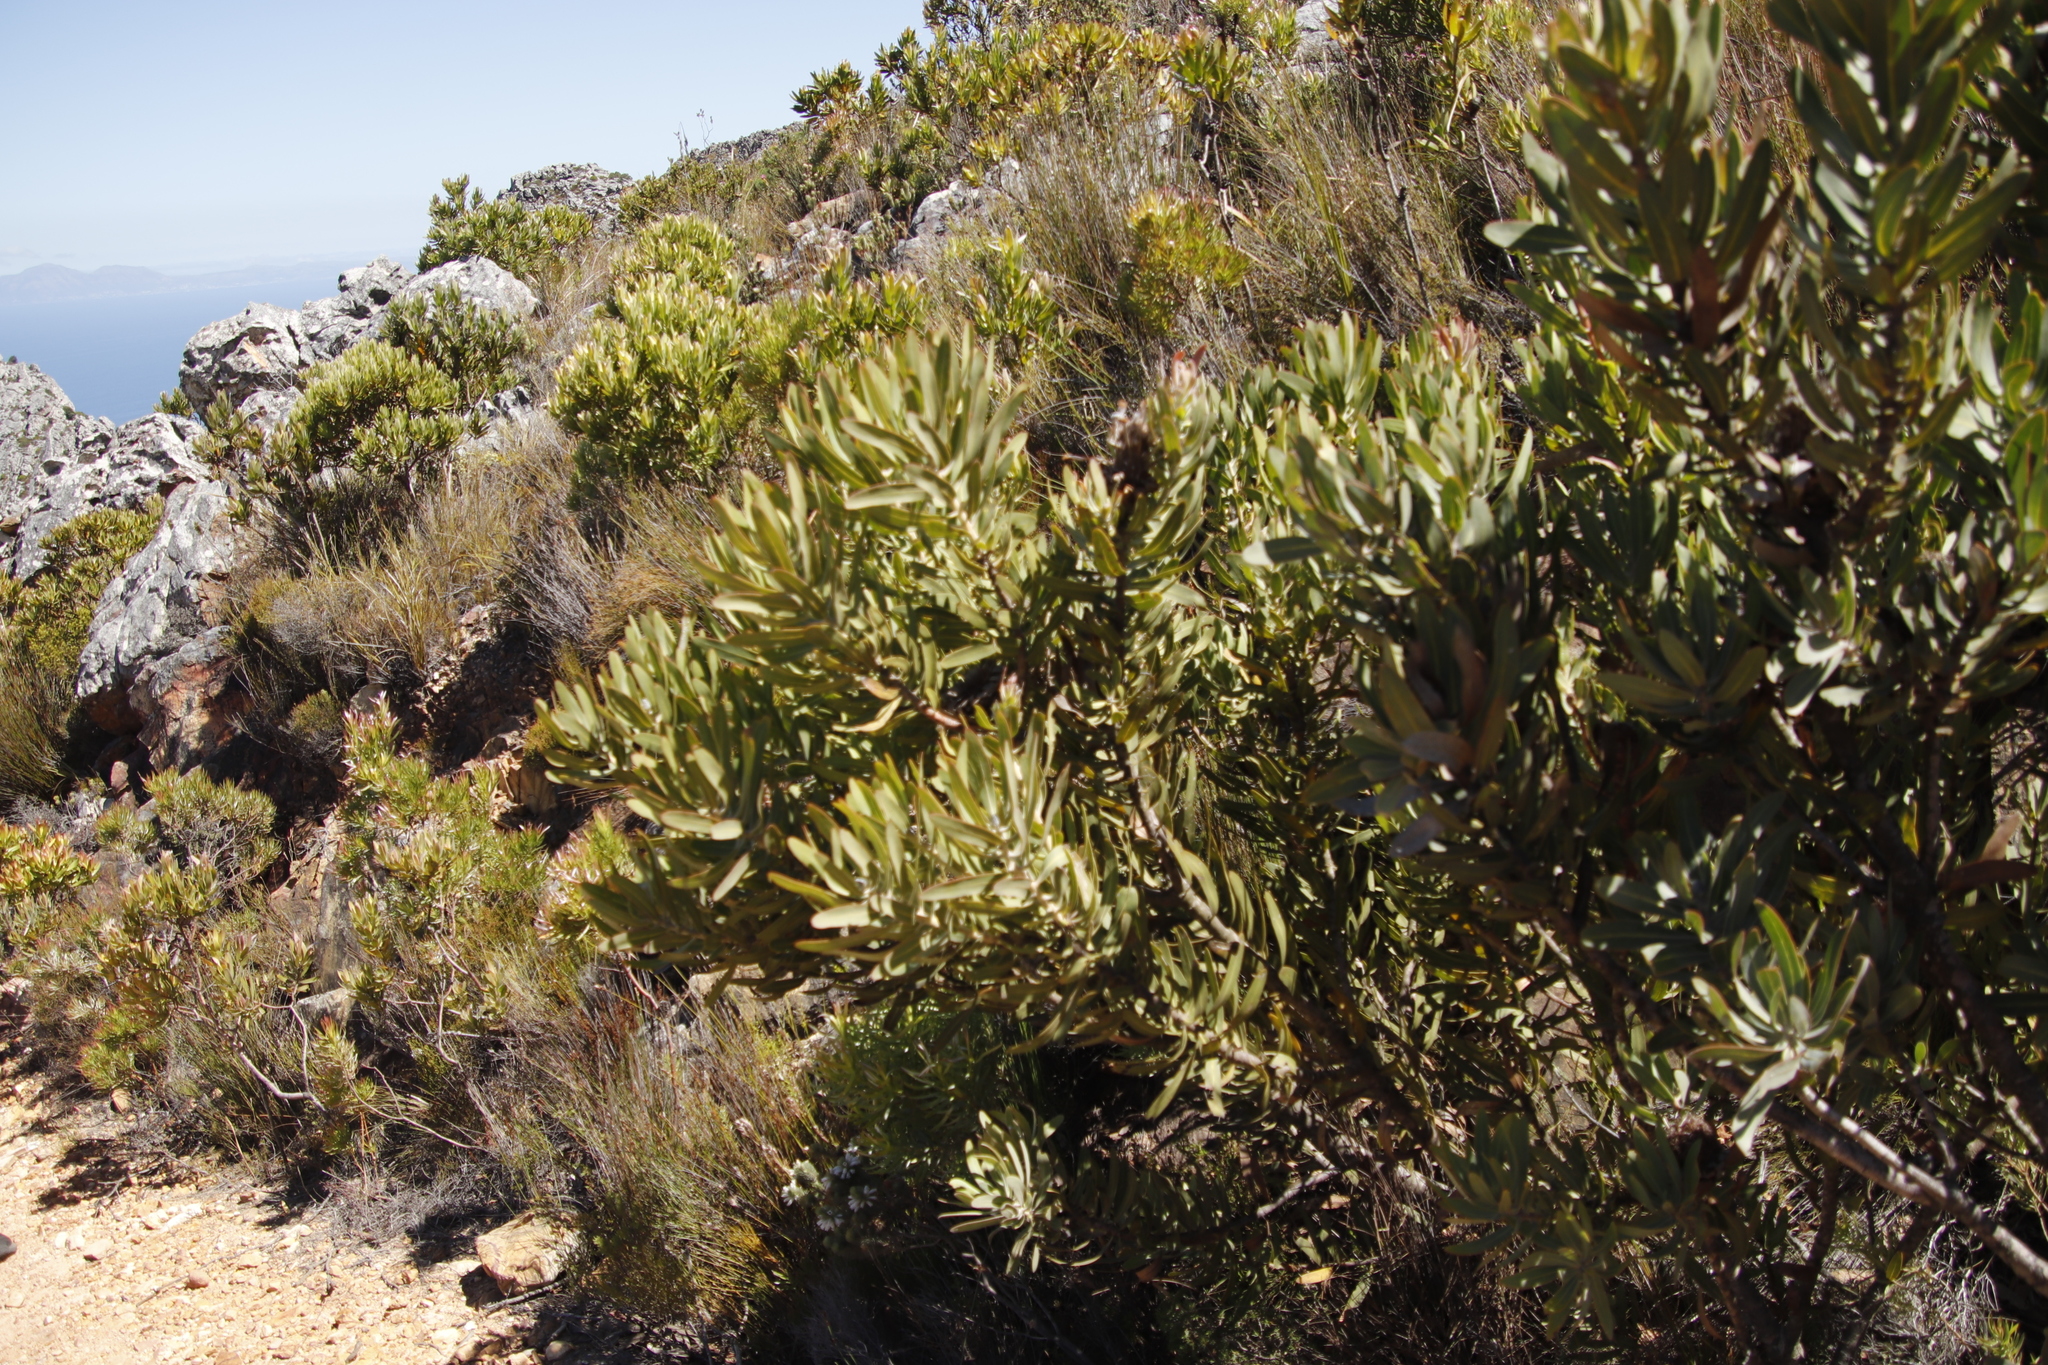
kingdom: Plantae
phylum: Tracheophyta
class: Magnoliopsida
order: Proteales
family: Proteaceae
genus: Protea
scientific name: Protea neriifolia
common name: Blue sugarbush
